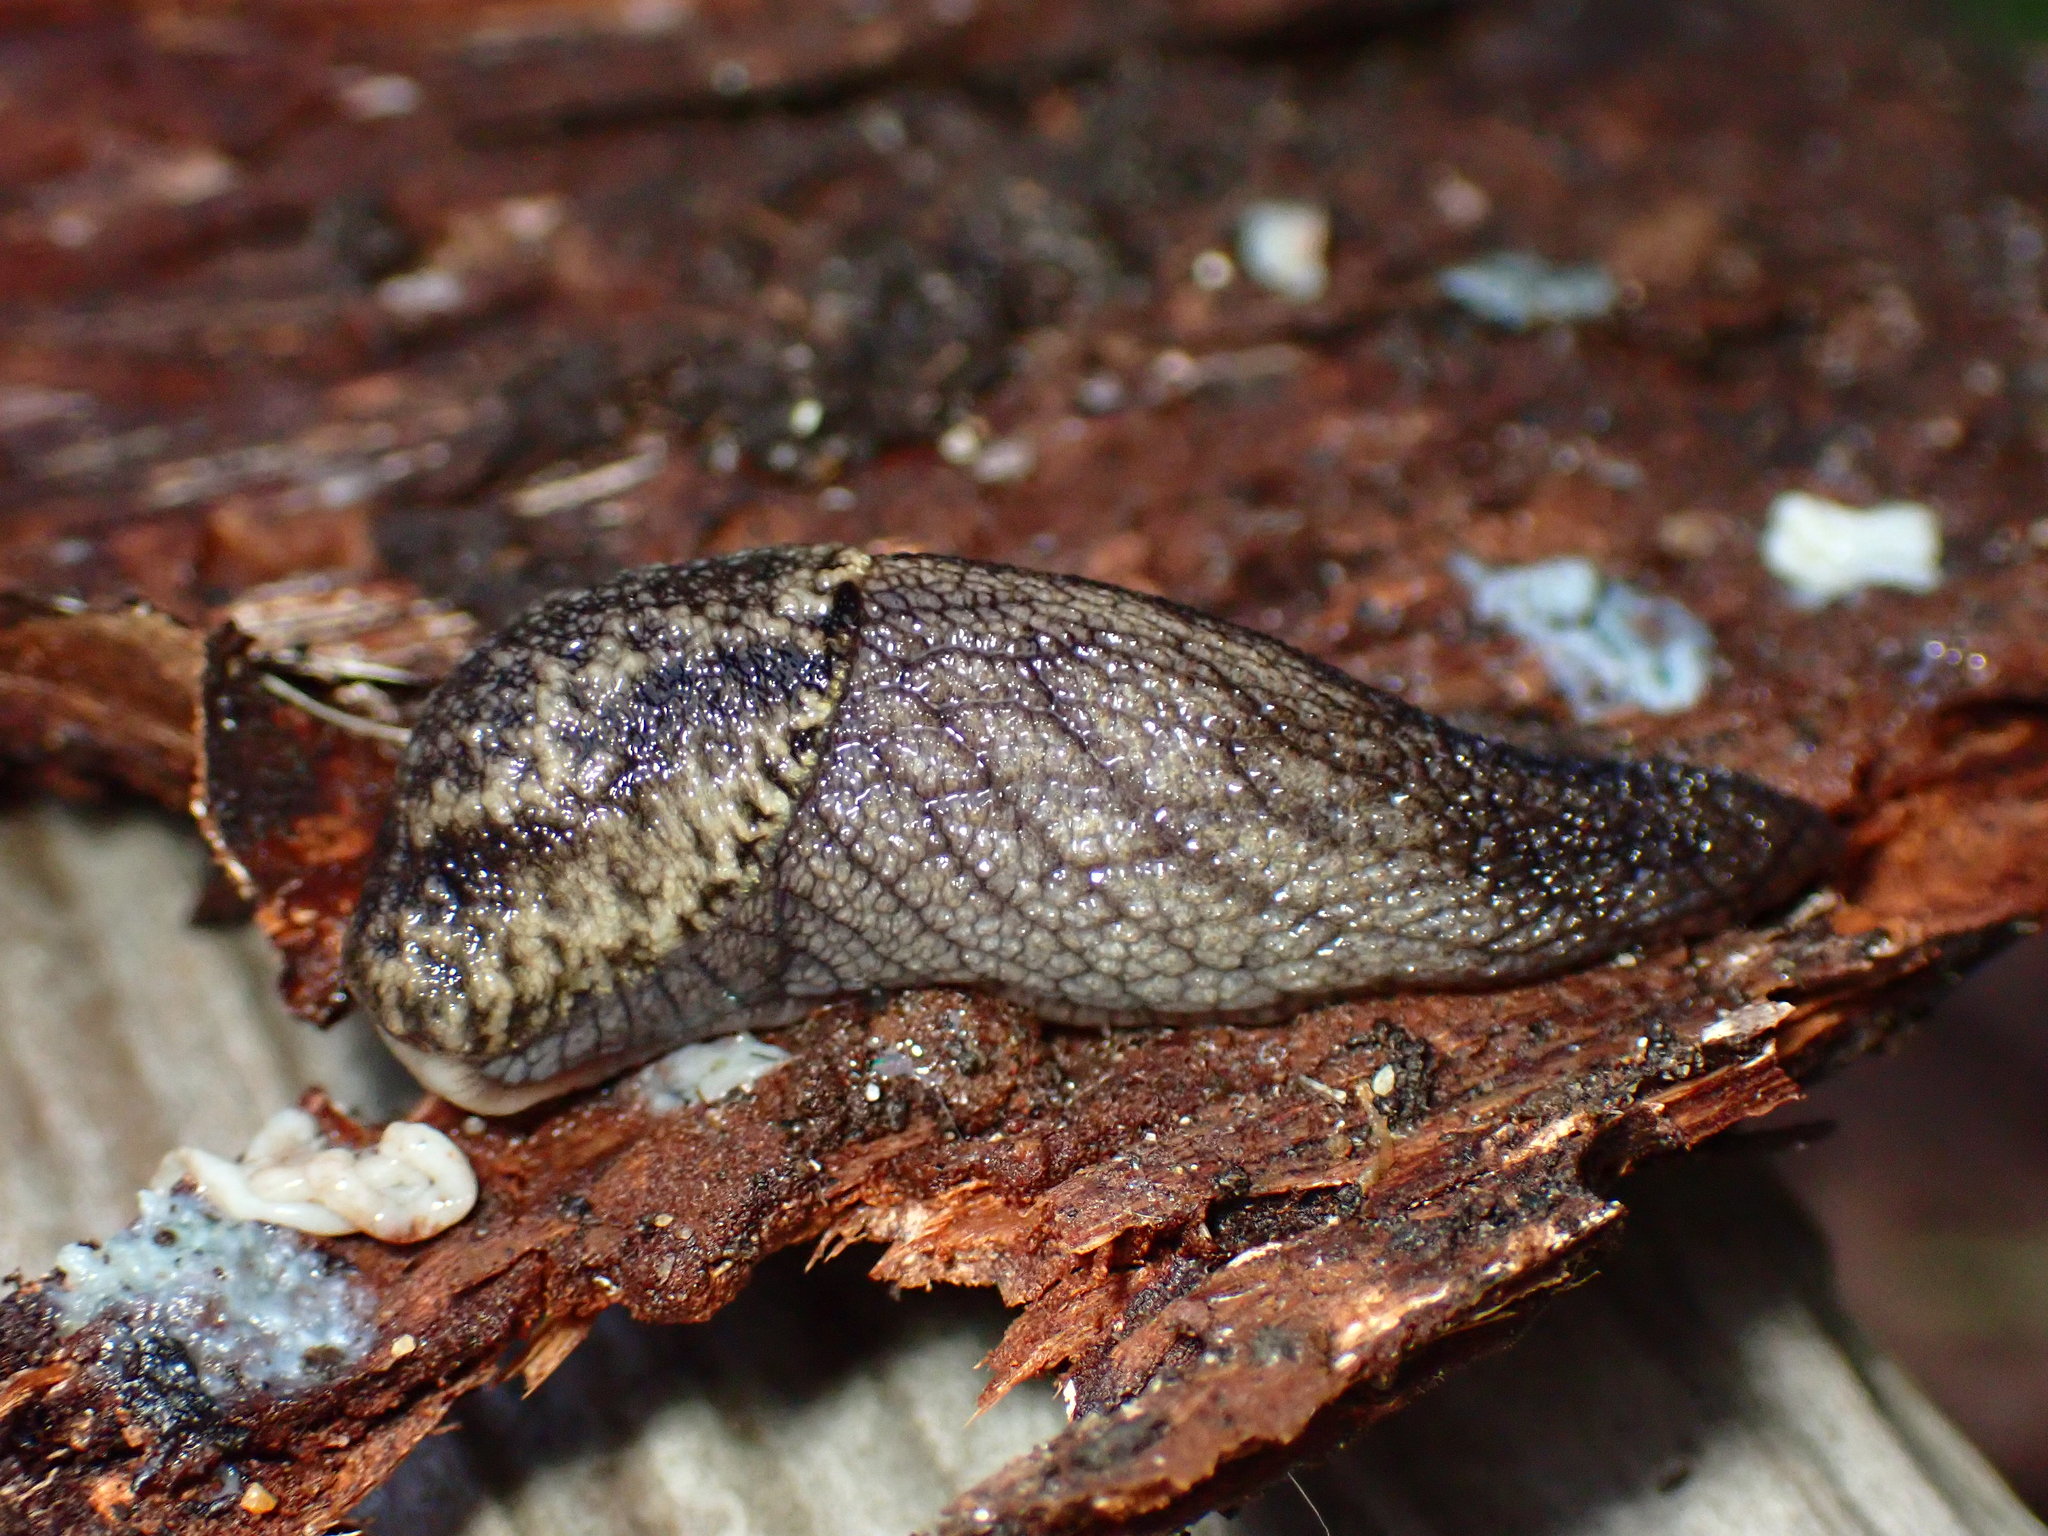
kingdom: Animalia
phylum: Mollusca
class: Gastropoda
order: Stylommatophora
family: Ariolimacidae
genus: Prophysaon
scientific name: Prophysaon andersonii
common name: Reticulate taildropper
